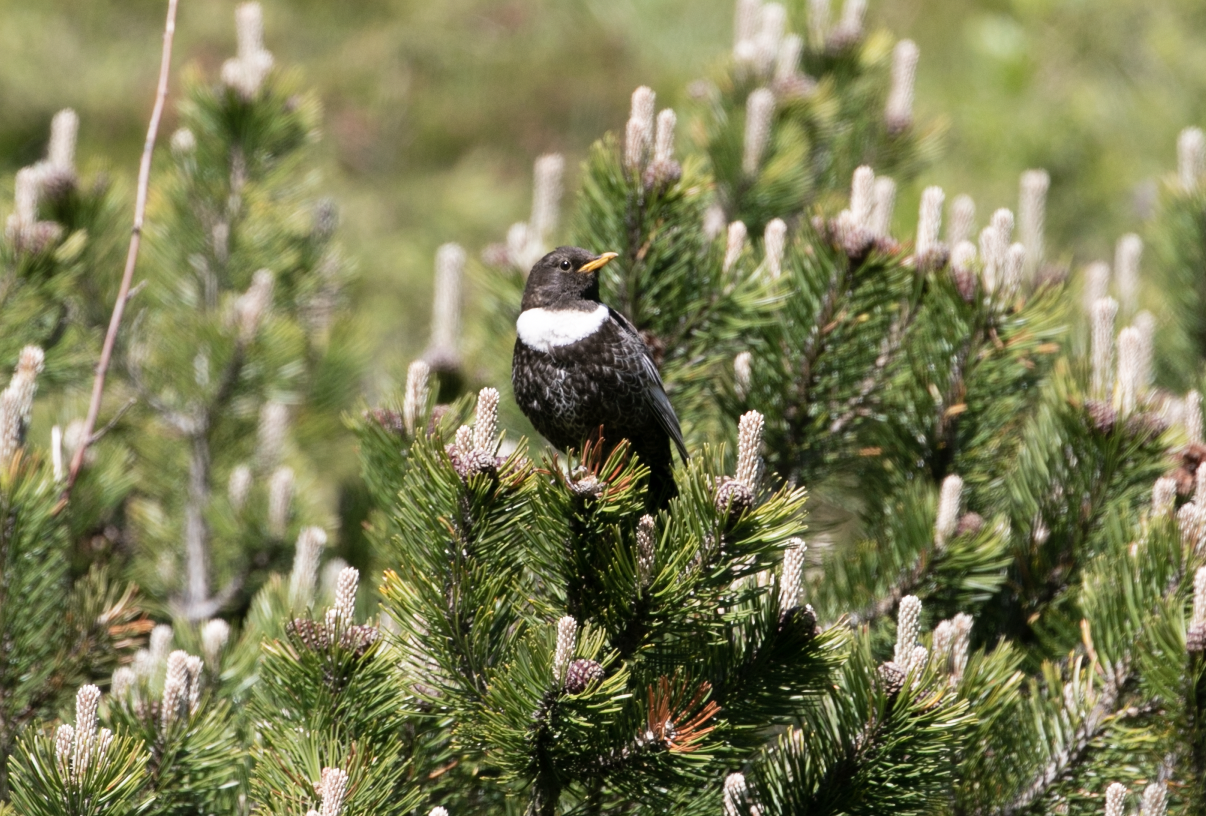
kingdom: Animalia
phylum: Chordata
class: Aves
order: Passeriformes
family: Turdidae
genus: Turdus
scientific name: Turdus torquatus
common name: Ring ouzel
